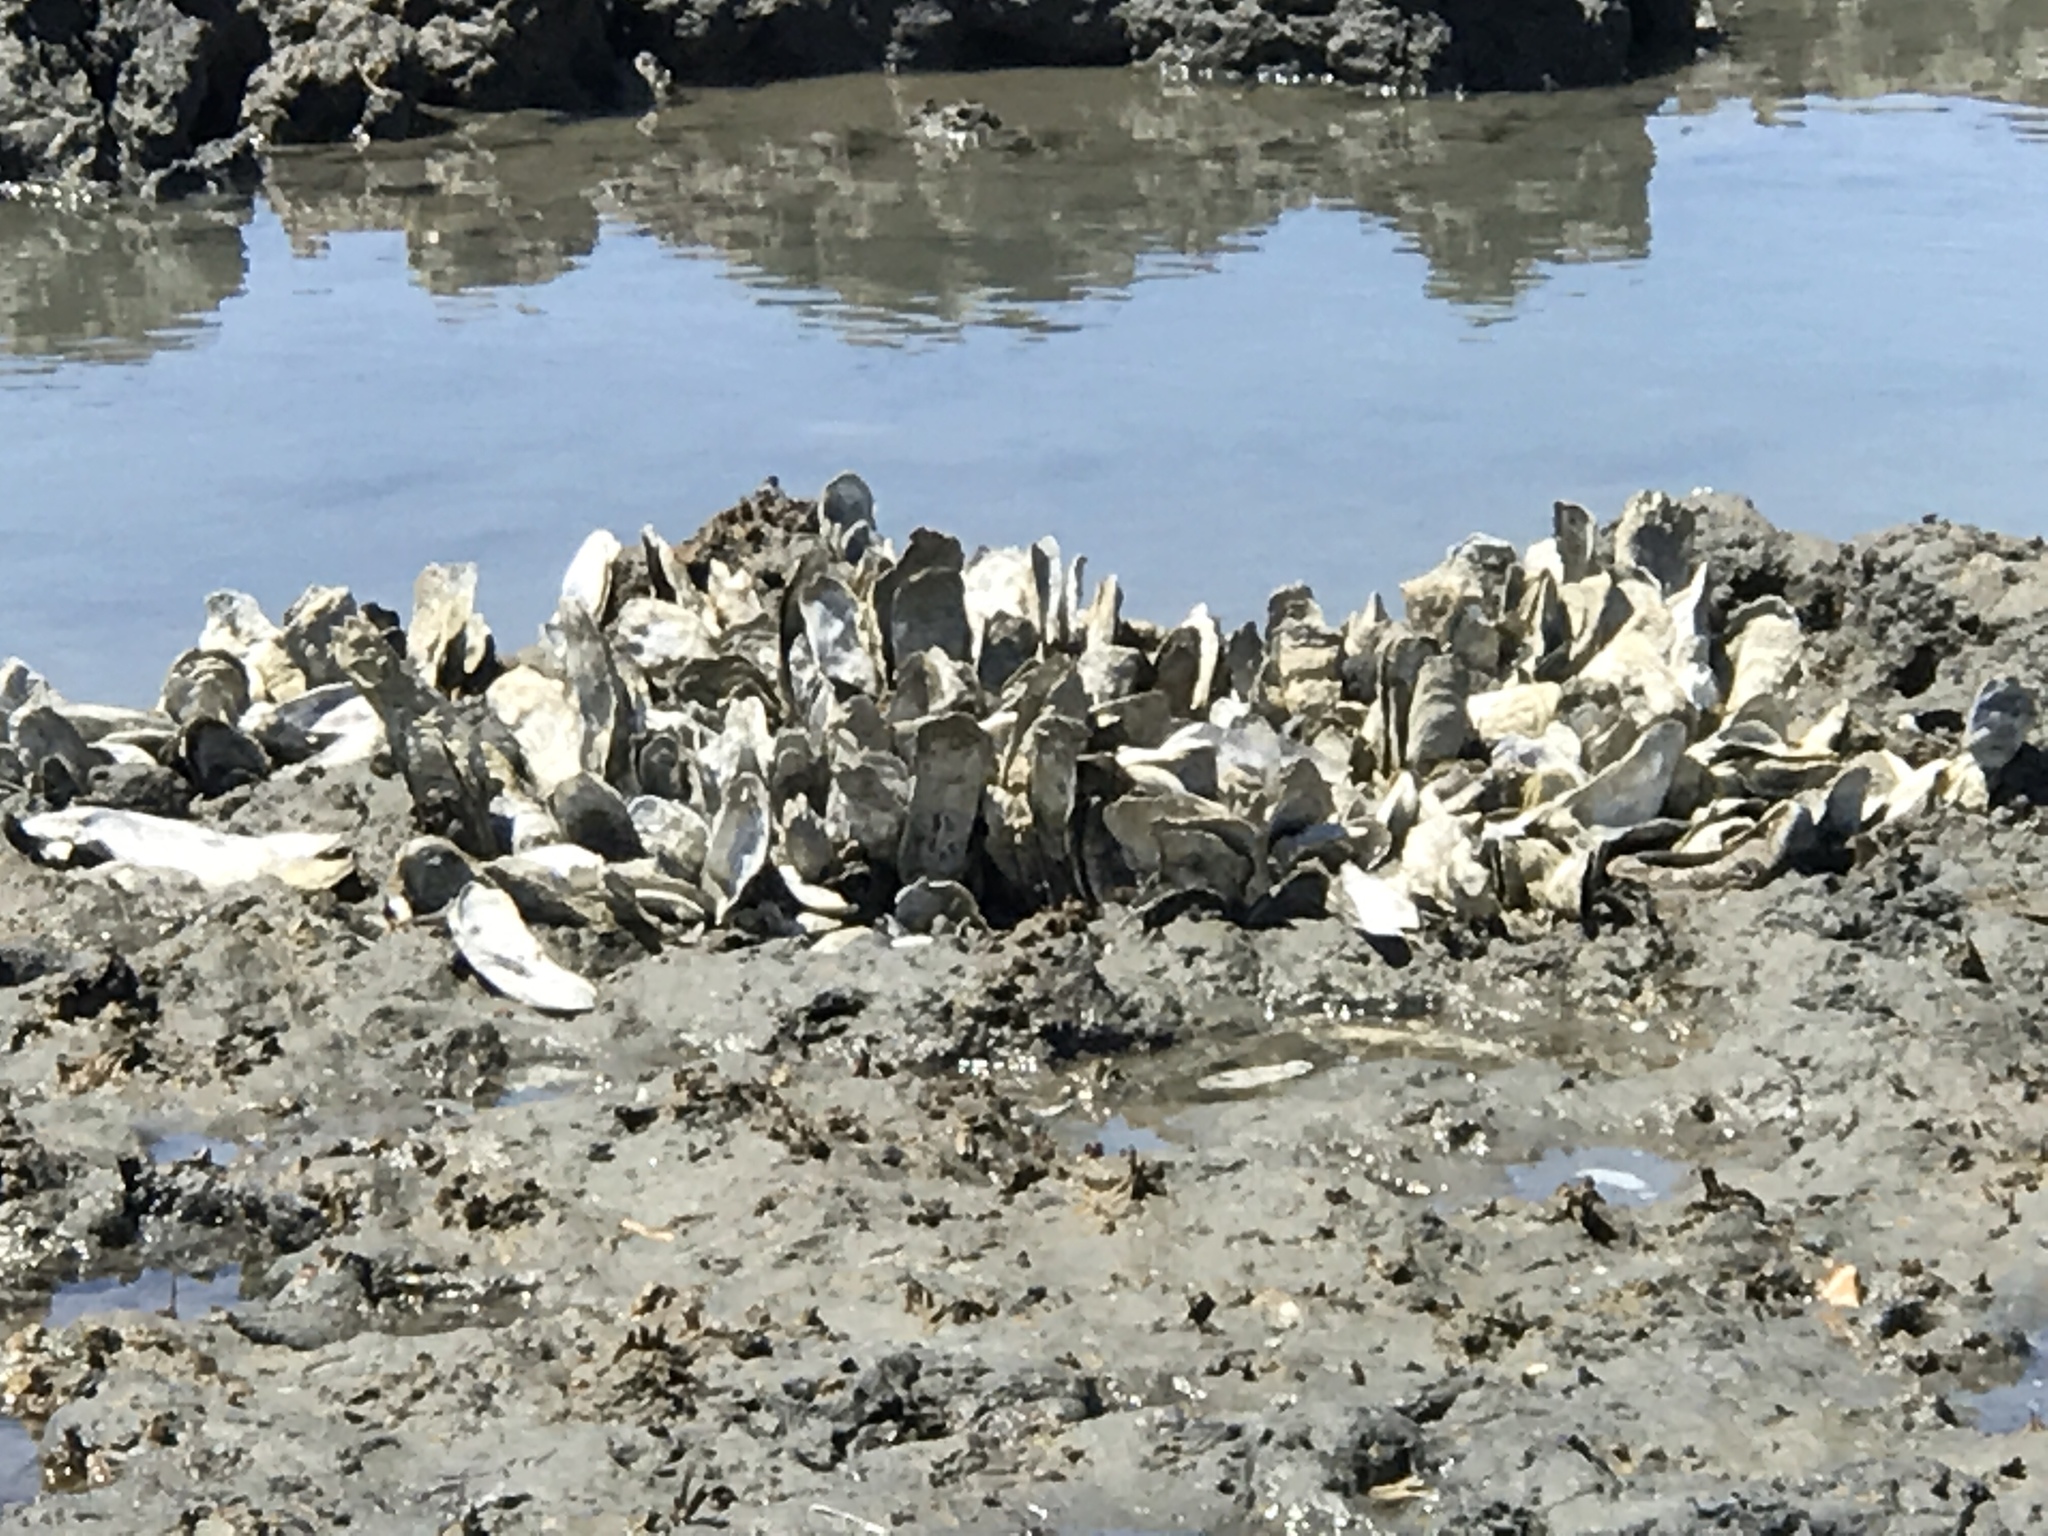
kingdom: Animalia
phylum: Mollusca
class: Bivalvia
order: Ostreida
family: Ostreidae
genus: Crassostrea
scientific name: Crassostrea virginica
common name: American oyster
